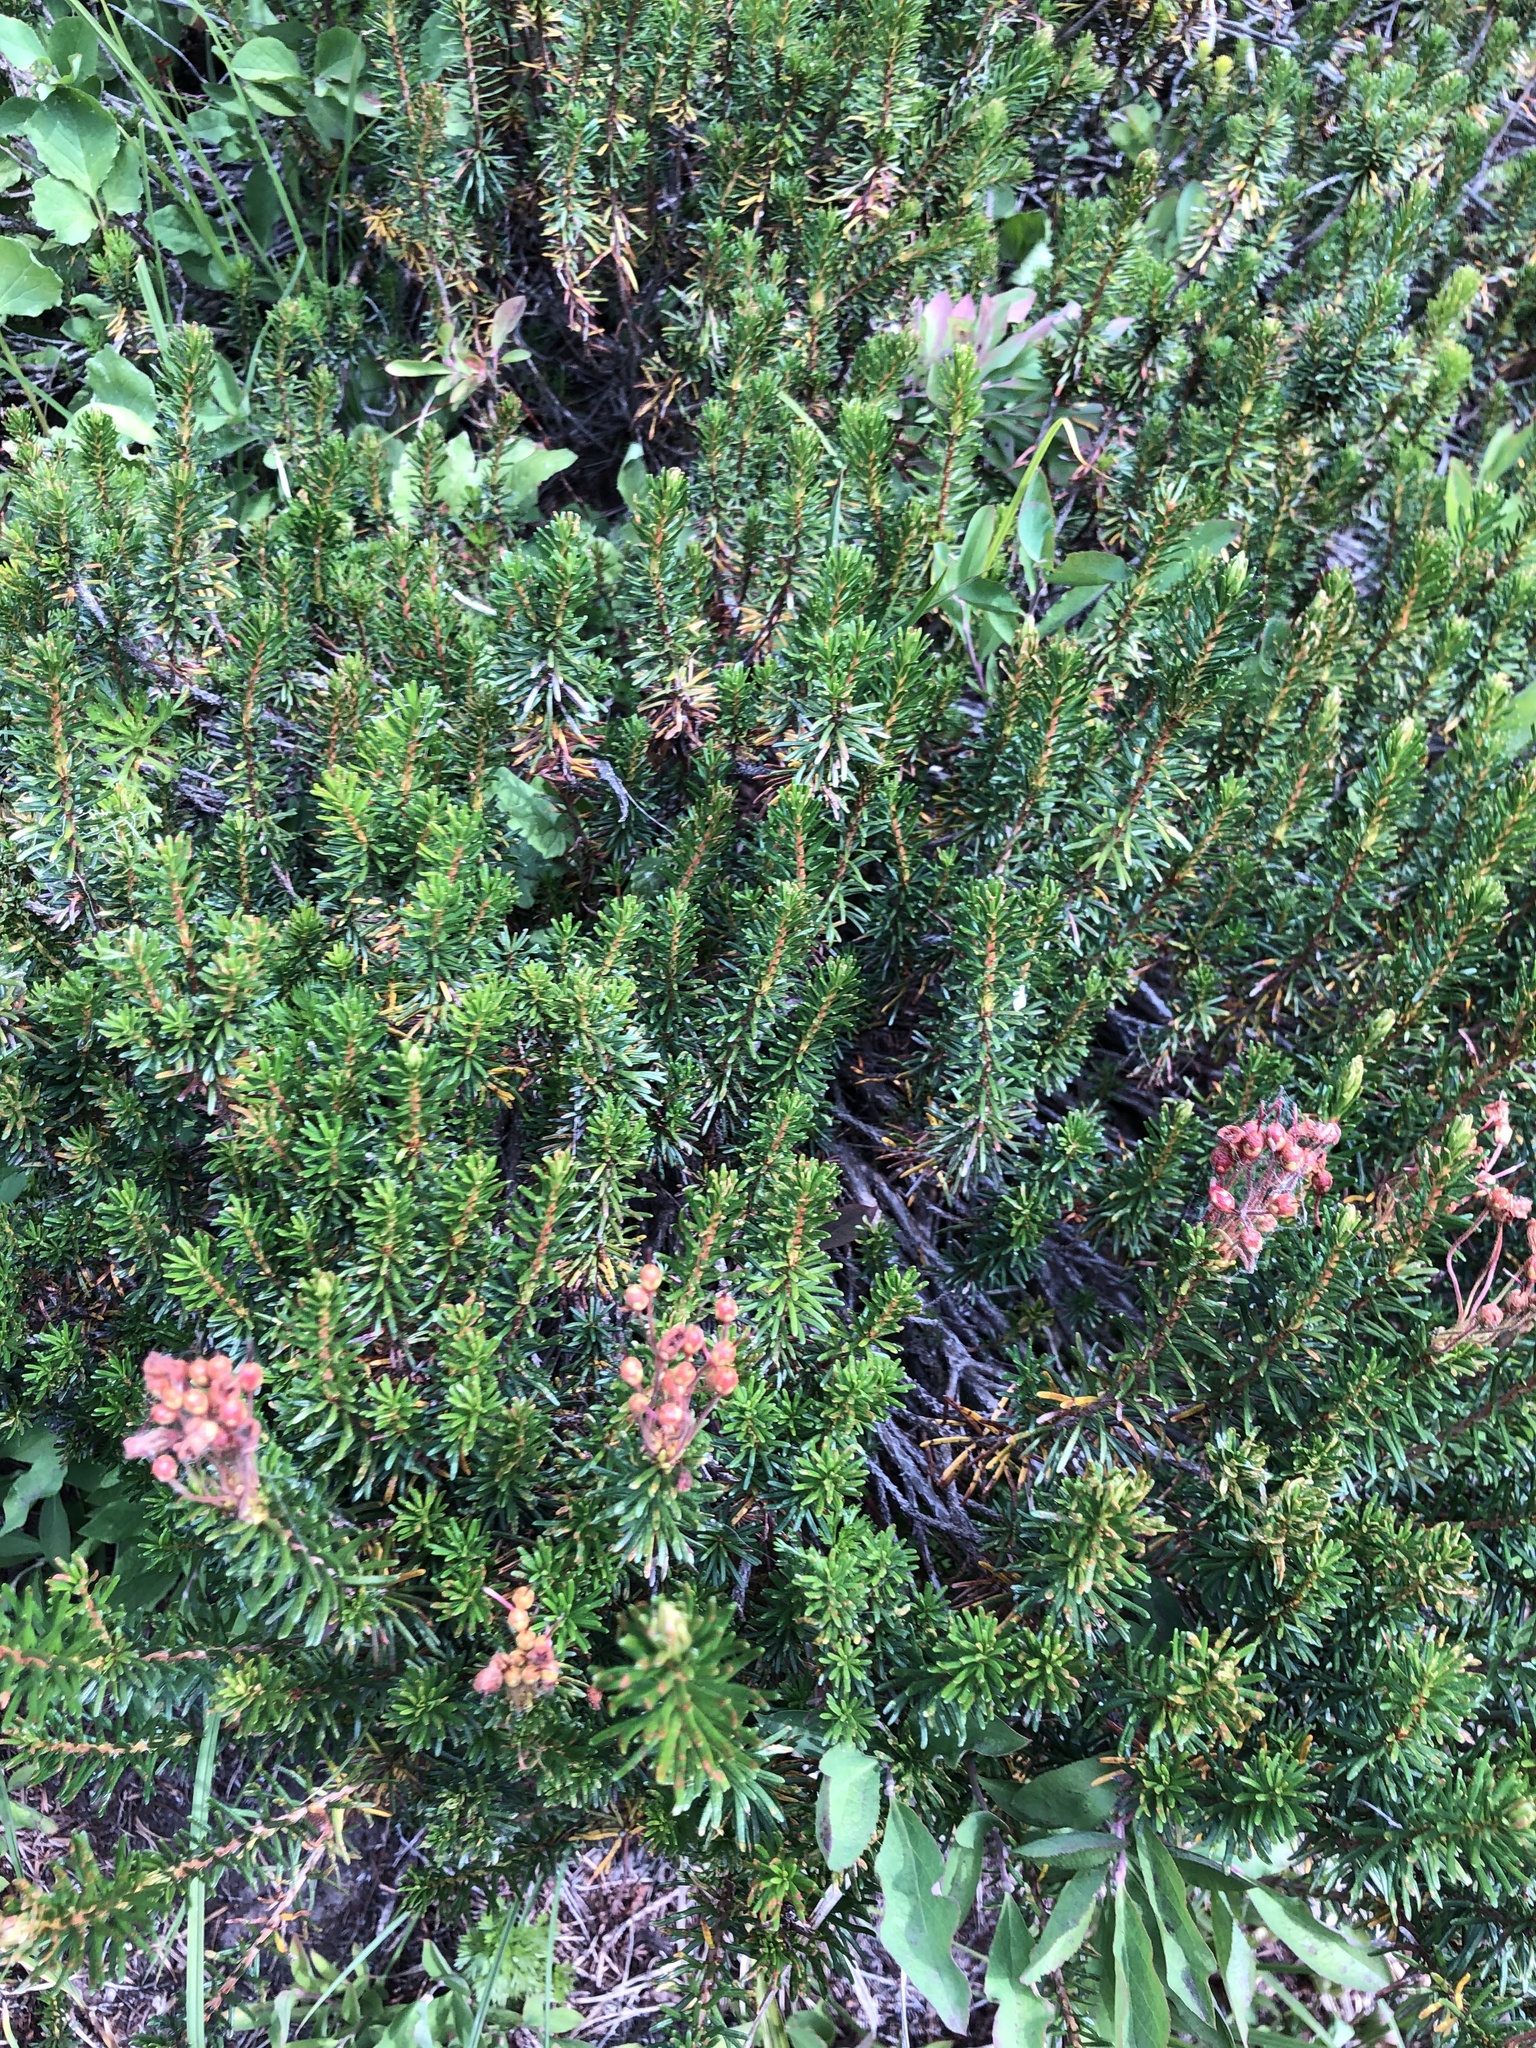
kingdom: Plantae
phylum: Tracheophyta
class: Magnoliopsida
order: Ericales
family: Ericaceae
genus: Phyllodoce
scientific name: Phyllodoce empetriformis
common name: Pink mountain heather
